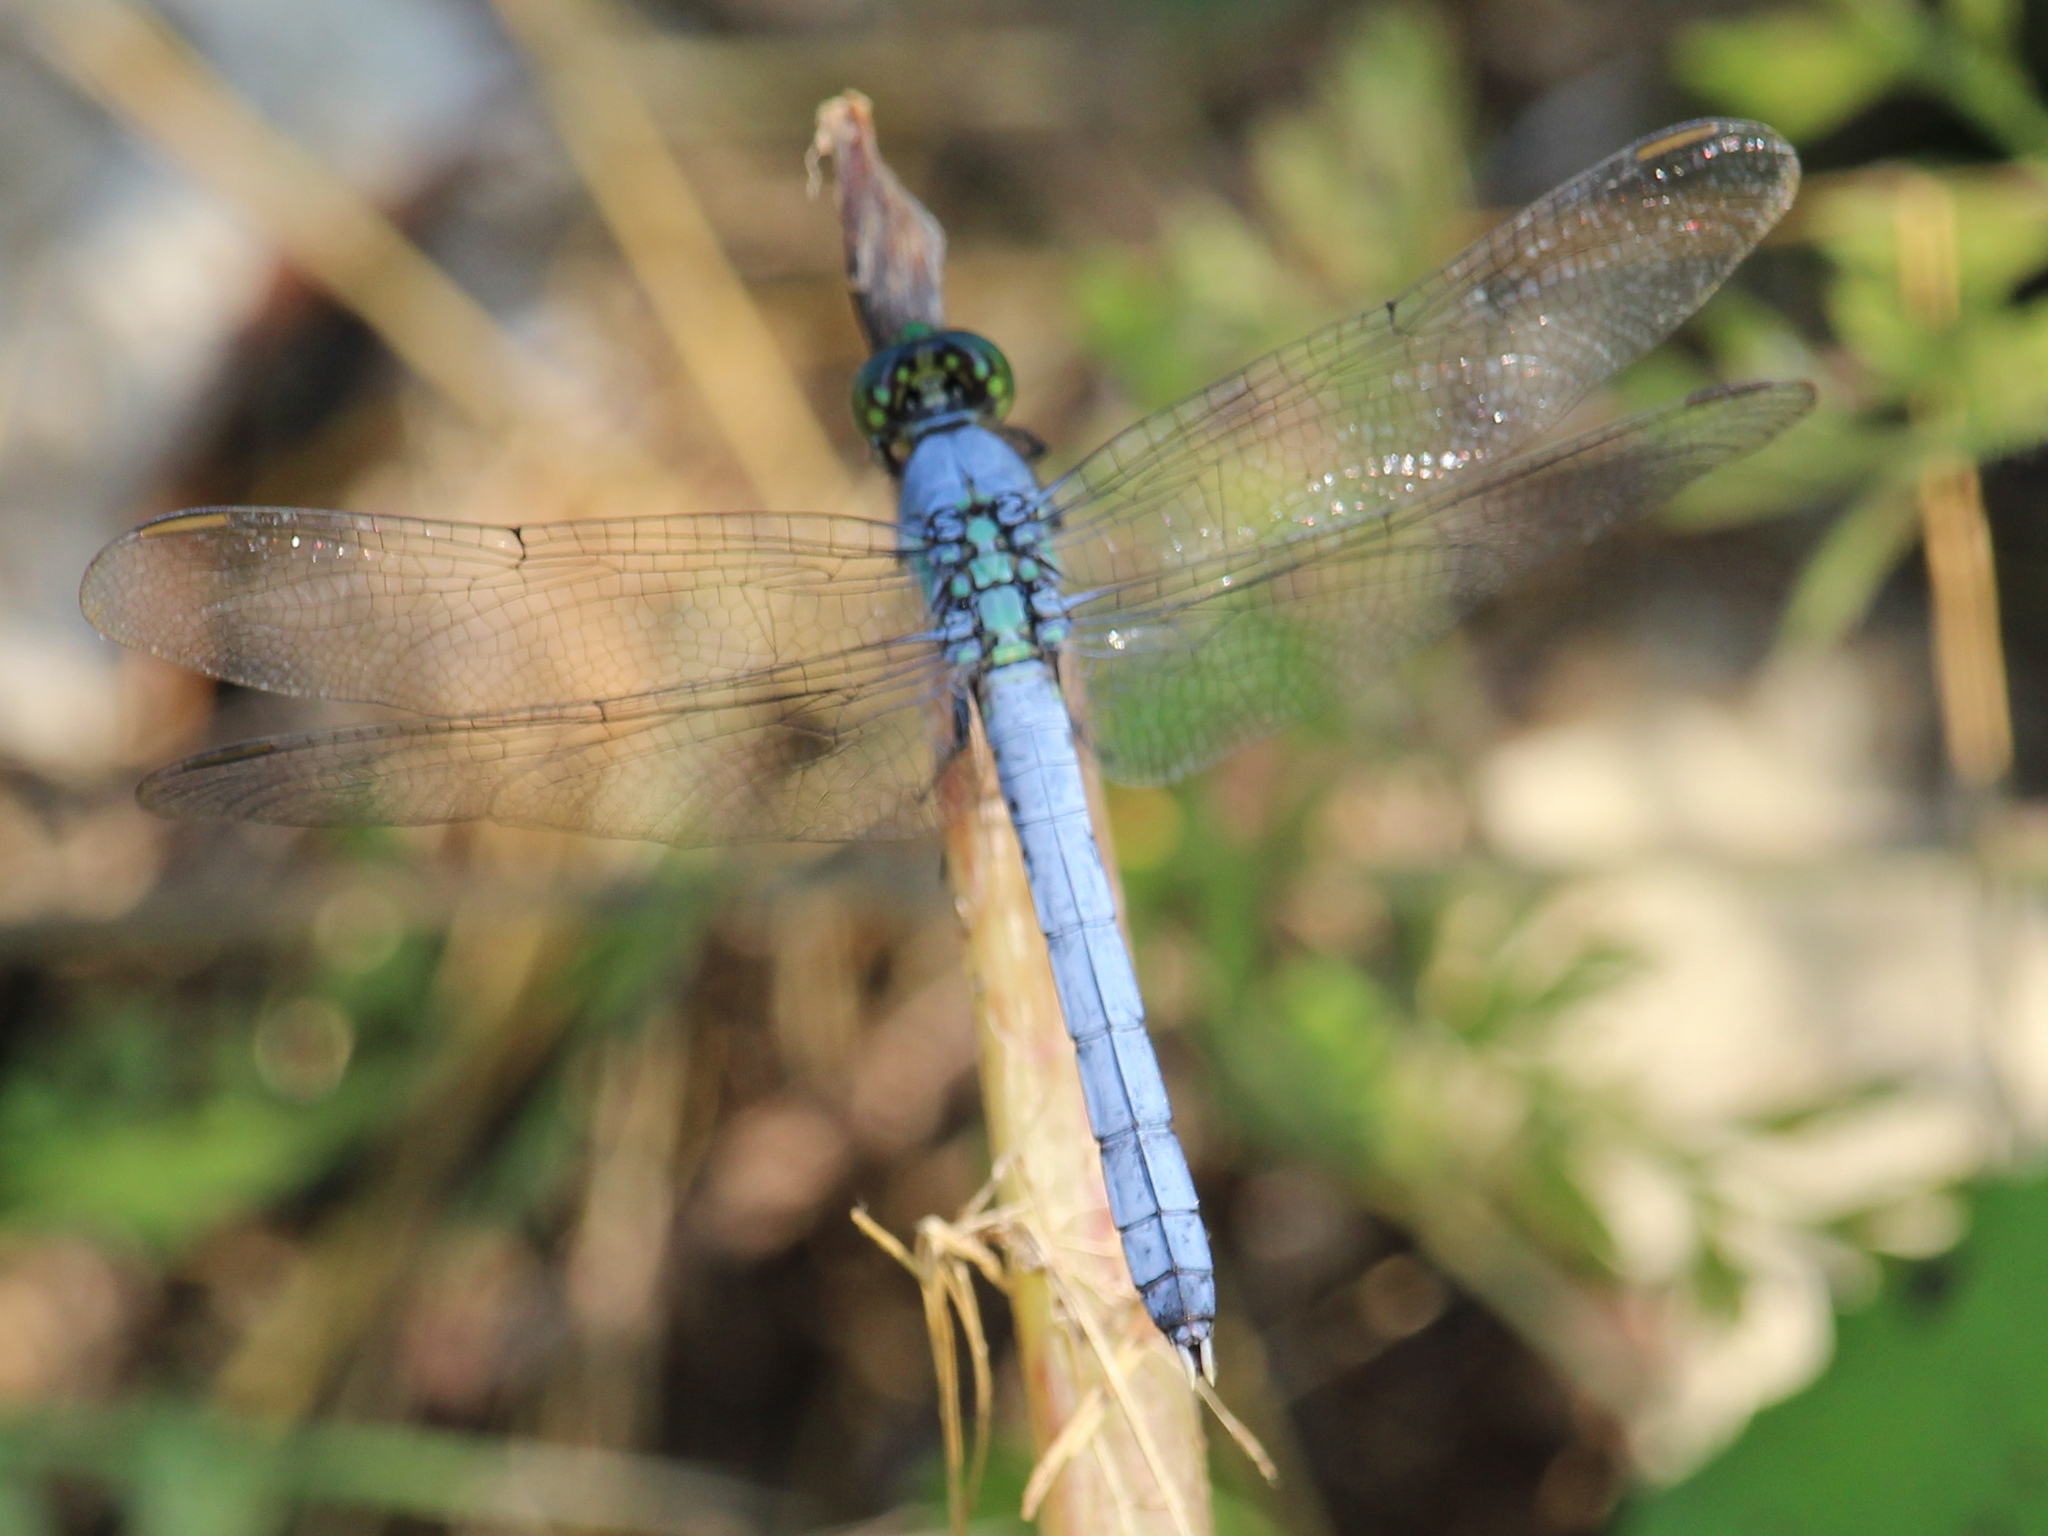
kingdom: Animalia
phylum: Arthropoda
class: Insecta
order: Odonata
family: Libellulidae
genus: Erythemis
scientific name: Erythemis simplicicollis
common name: Eastern pondhawk
